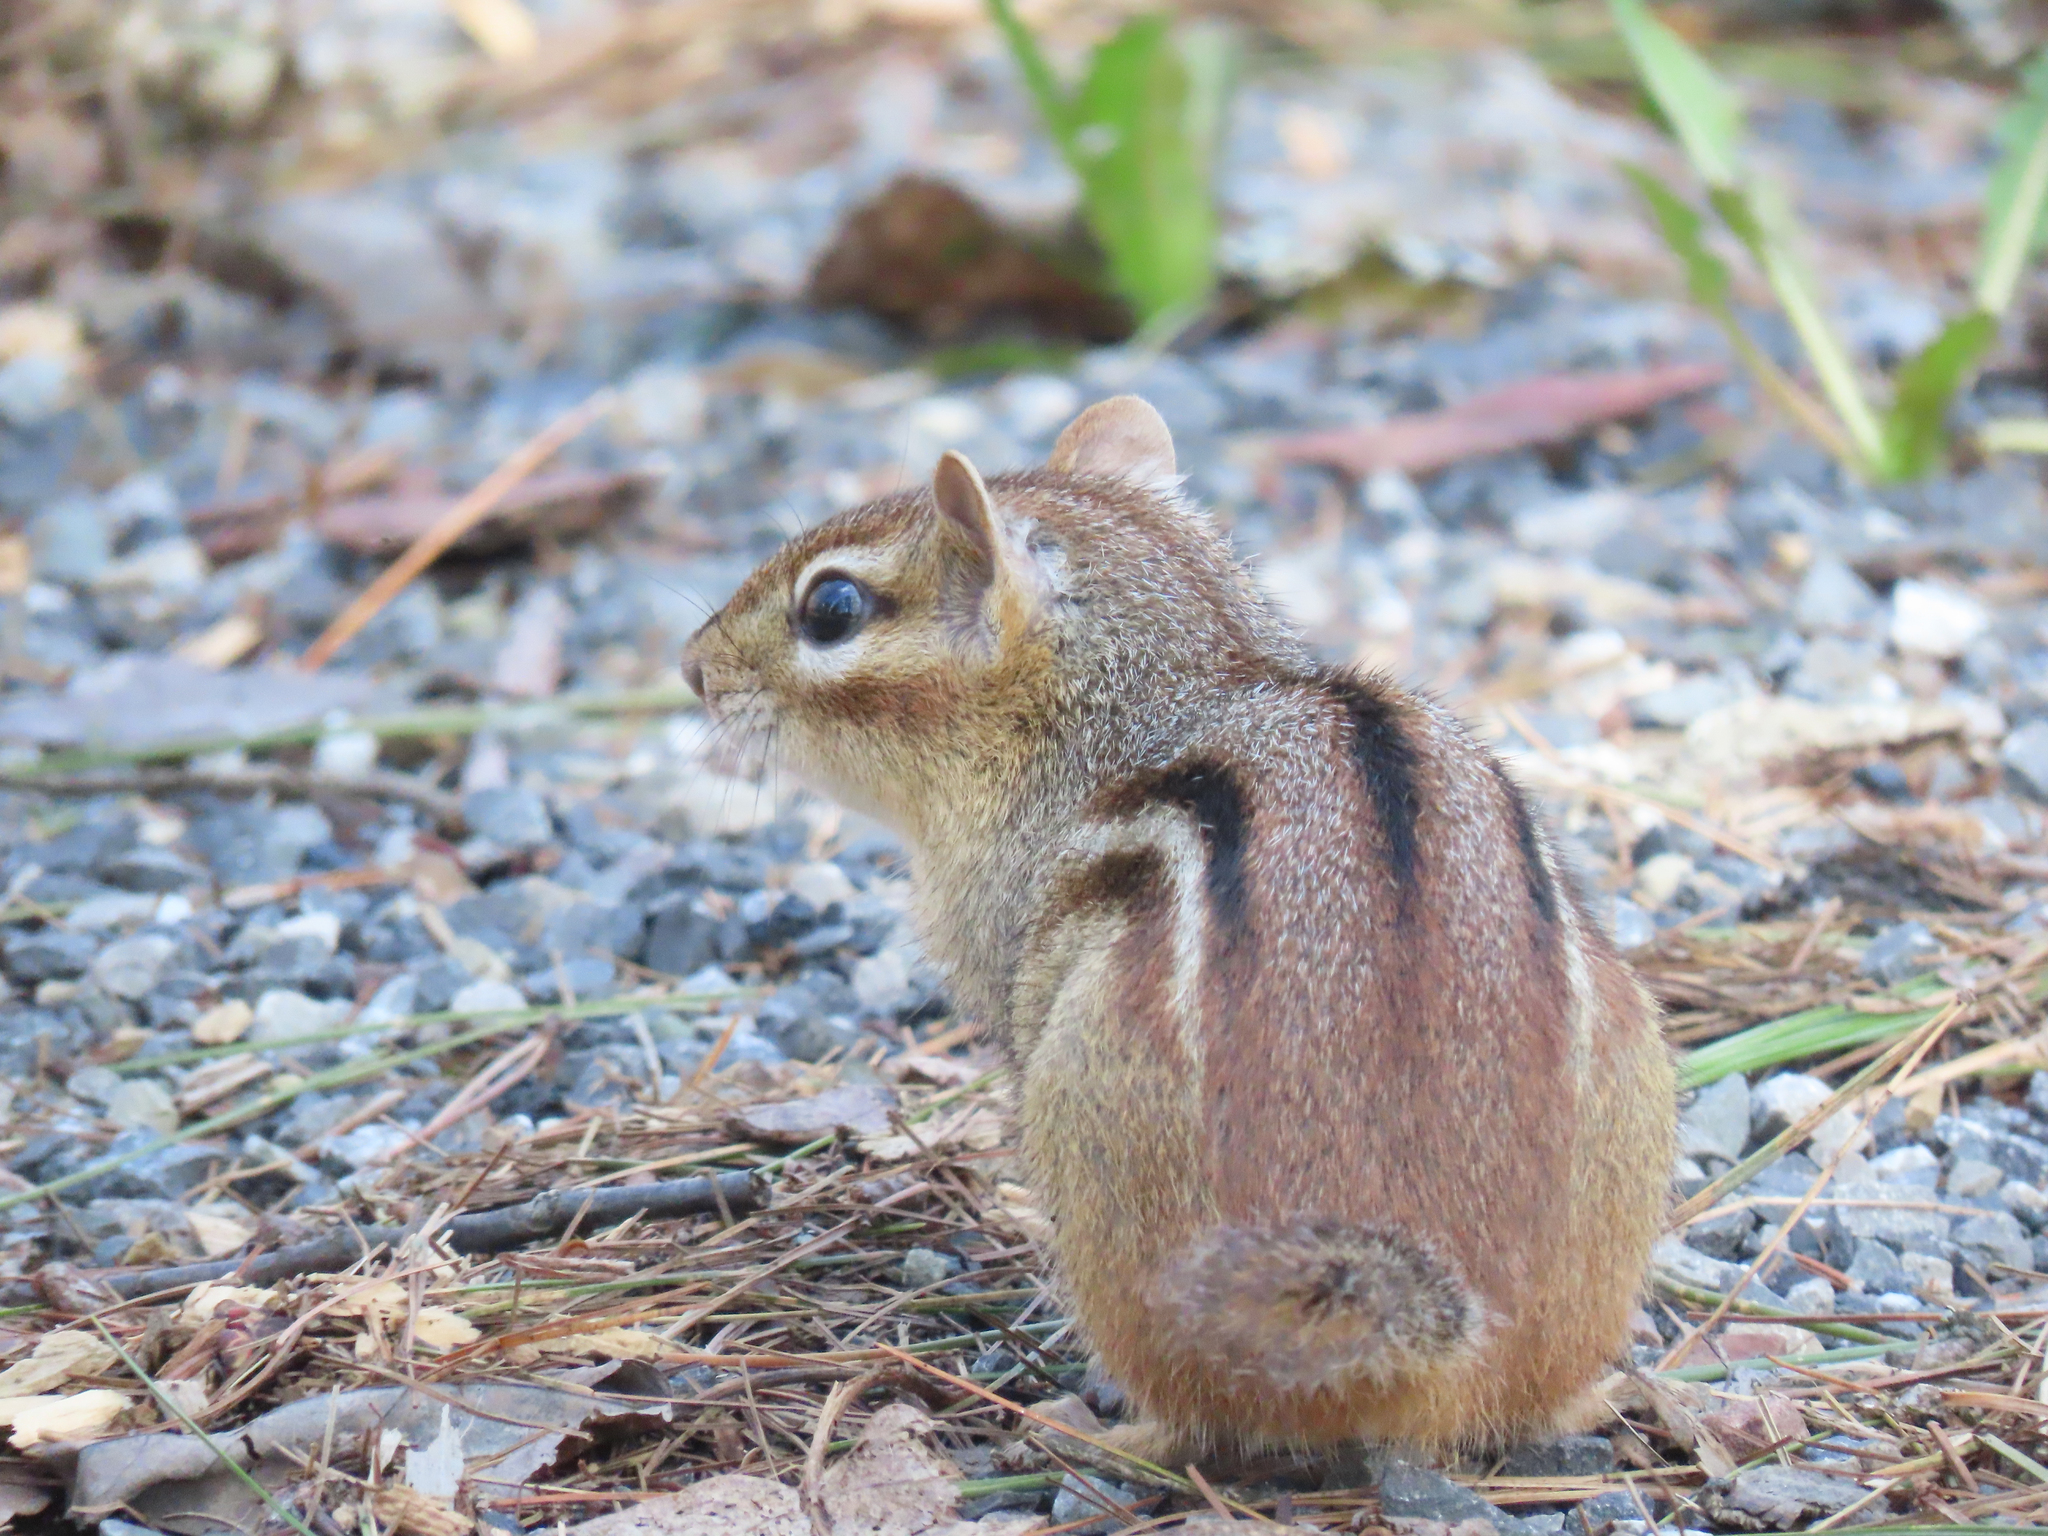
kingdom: Animalia
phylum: Chordata
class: Mammalia
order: Rodentia
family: Sciuridae
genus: Tamias
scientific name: Tamias striatus
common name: Eastern chipmunk
